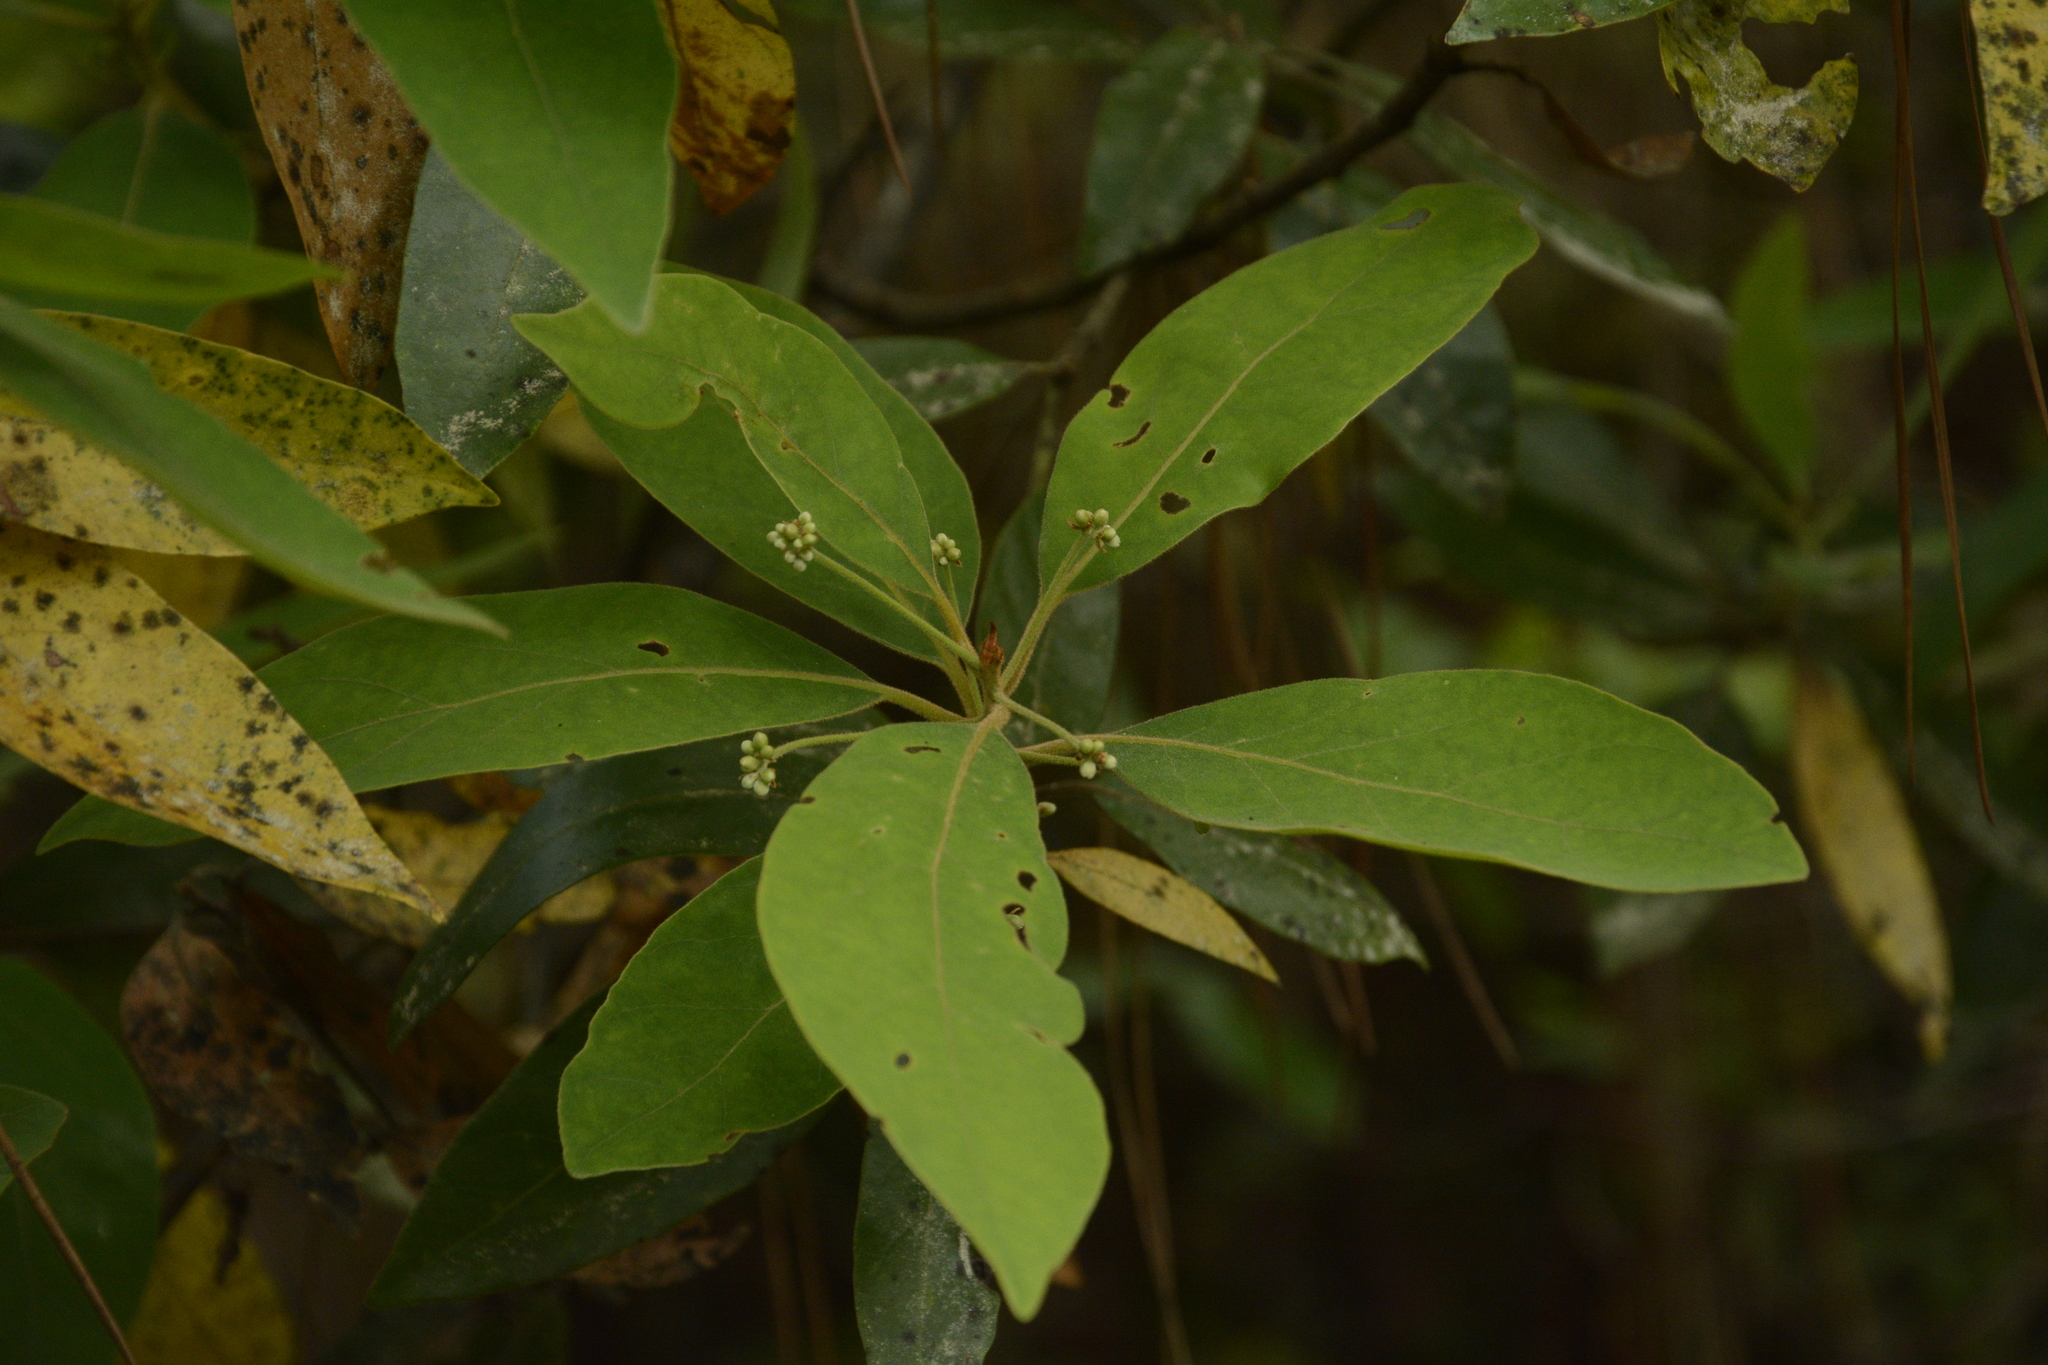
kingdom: Plantae
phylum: Tracheophyta
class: Magnoliopsida
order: Laurales
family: Lauraceae
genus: Persea
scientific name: Persea palustris
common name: Swampbay
